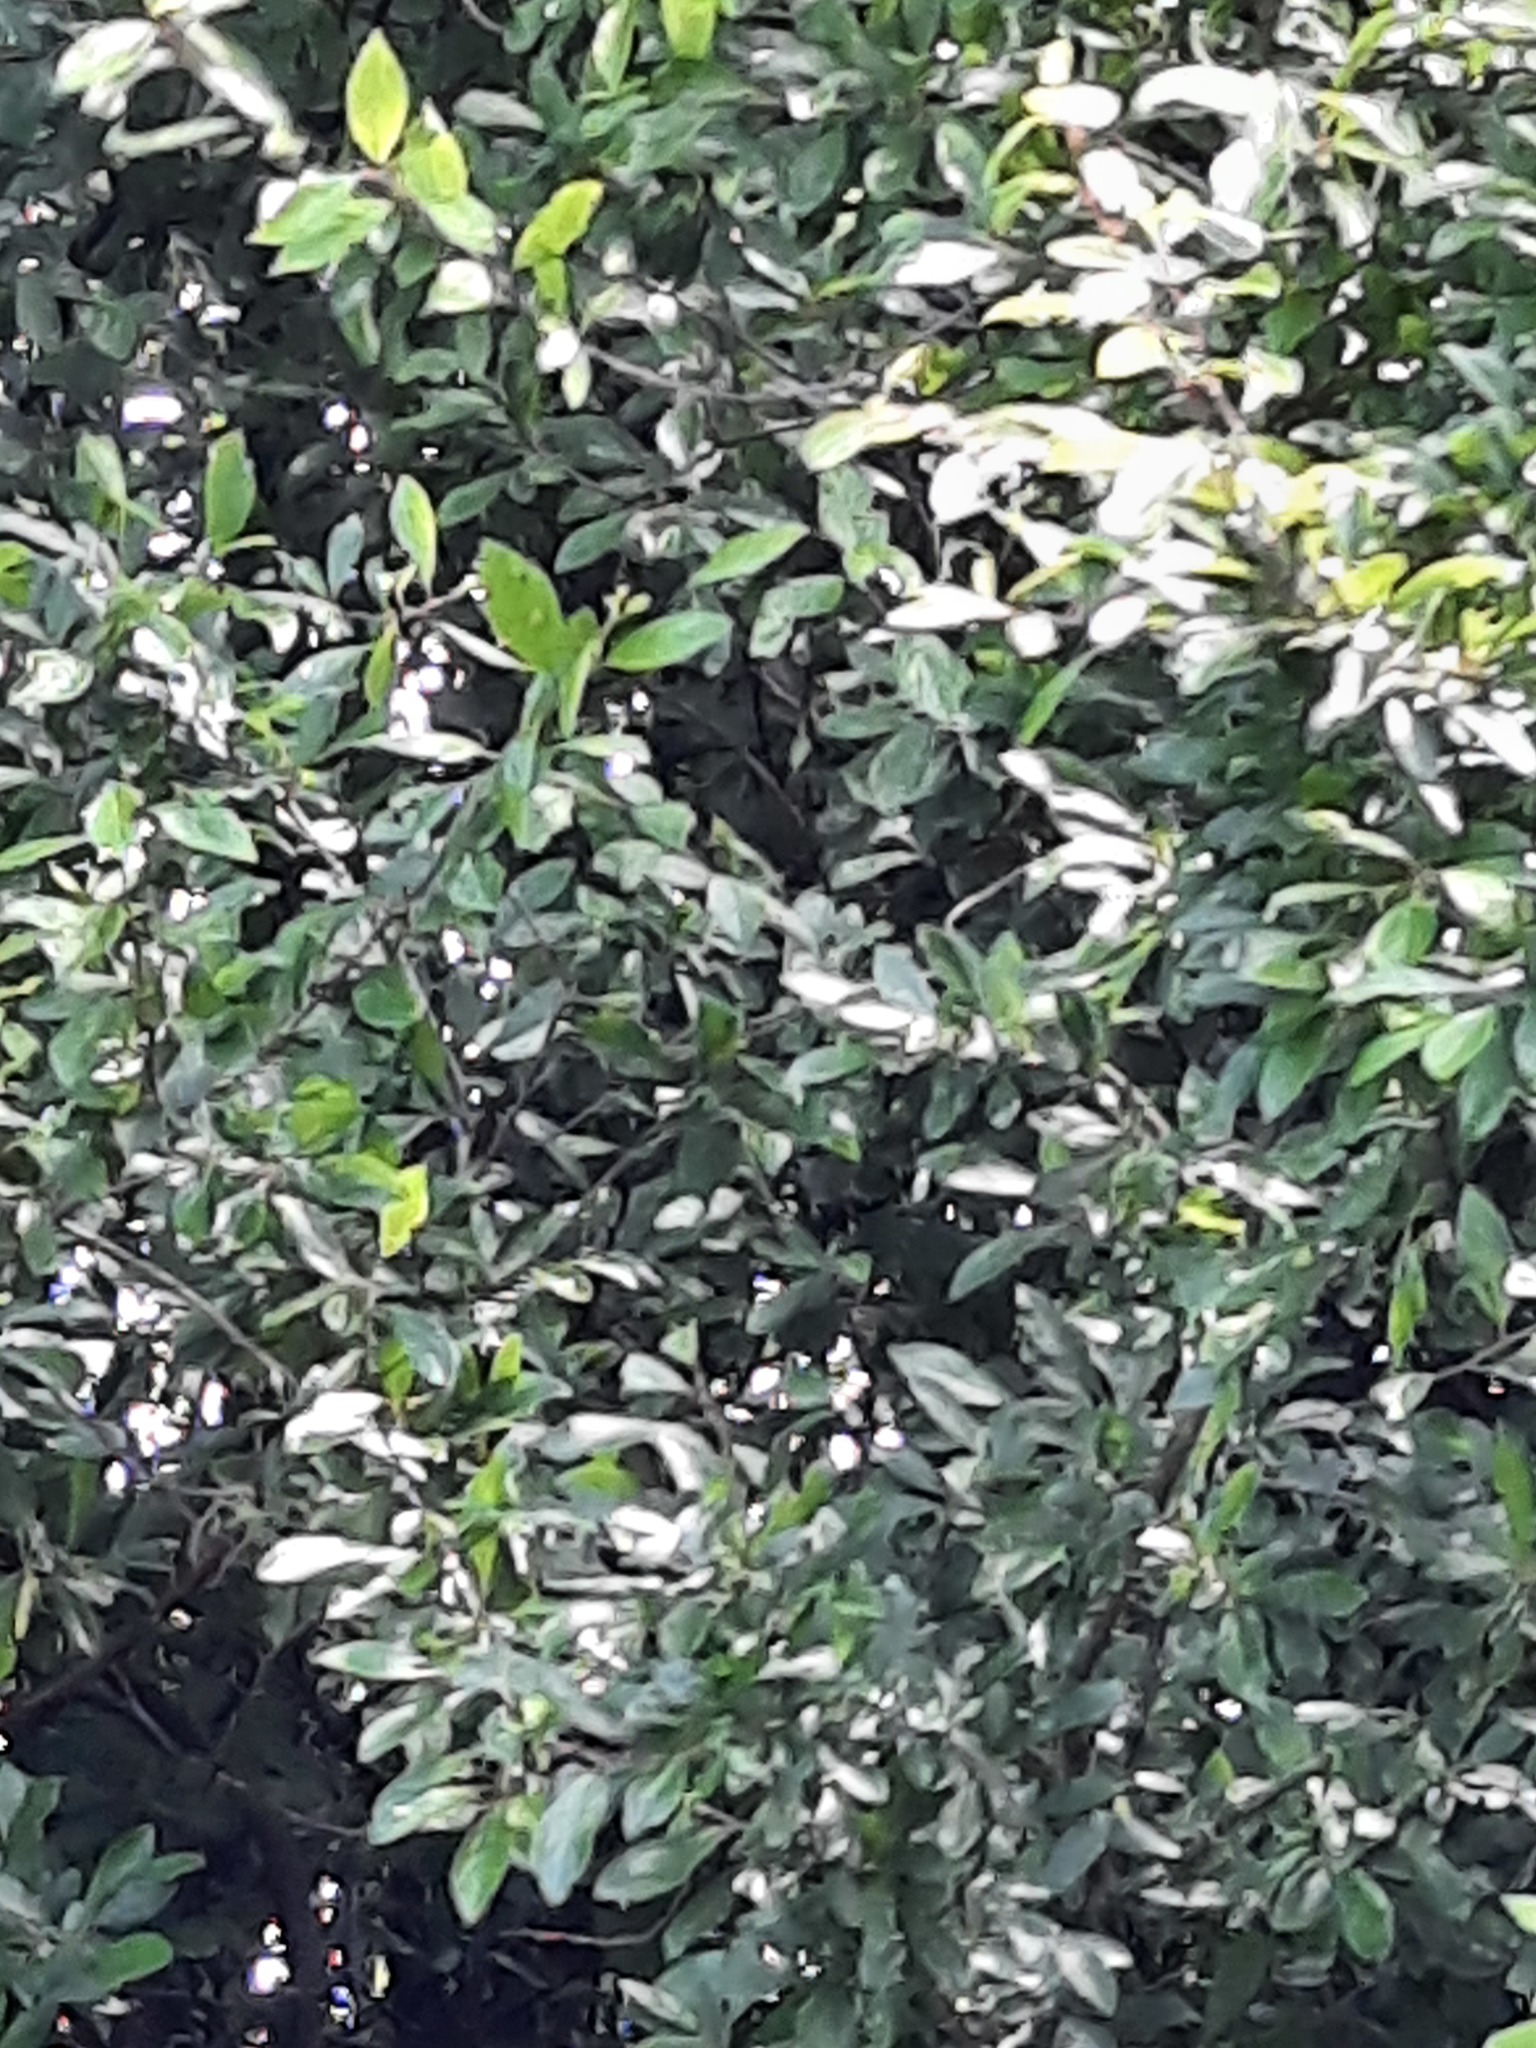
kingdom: Plantae
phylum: Tracheophyta
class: Magnoliopsida
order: Rosales
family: Rosaceae
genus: Prunus
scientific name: Prunus spinosa
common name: Blackthorn
